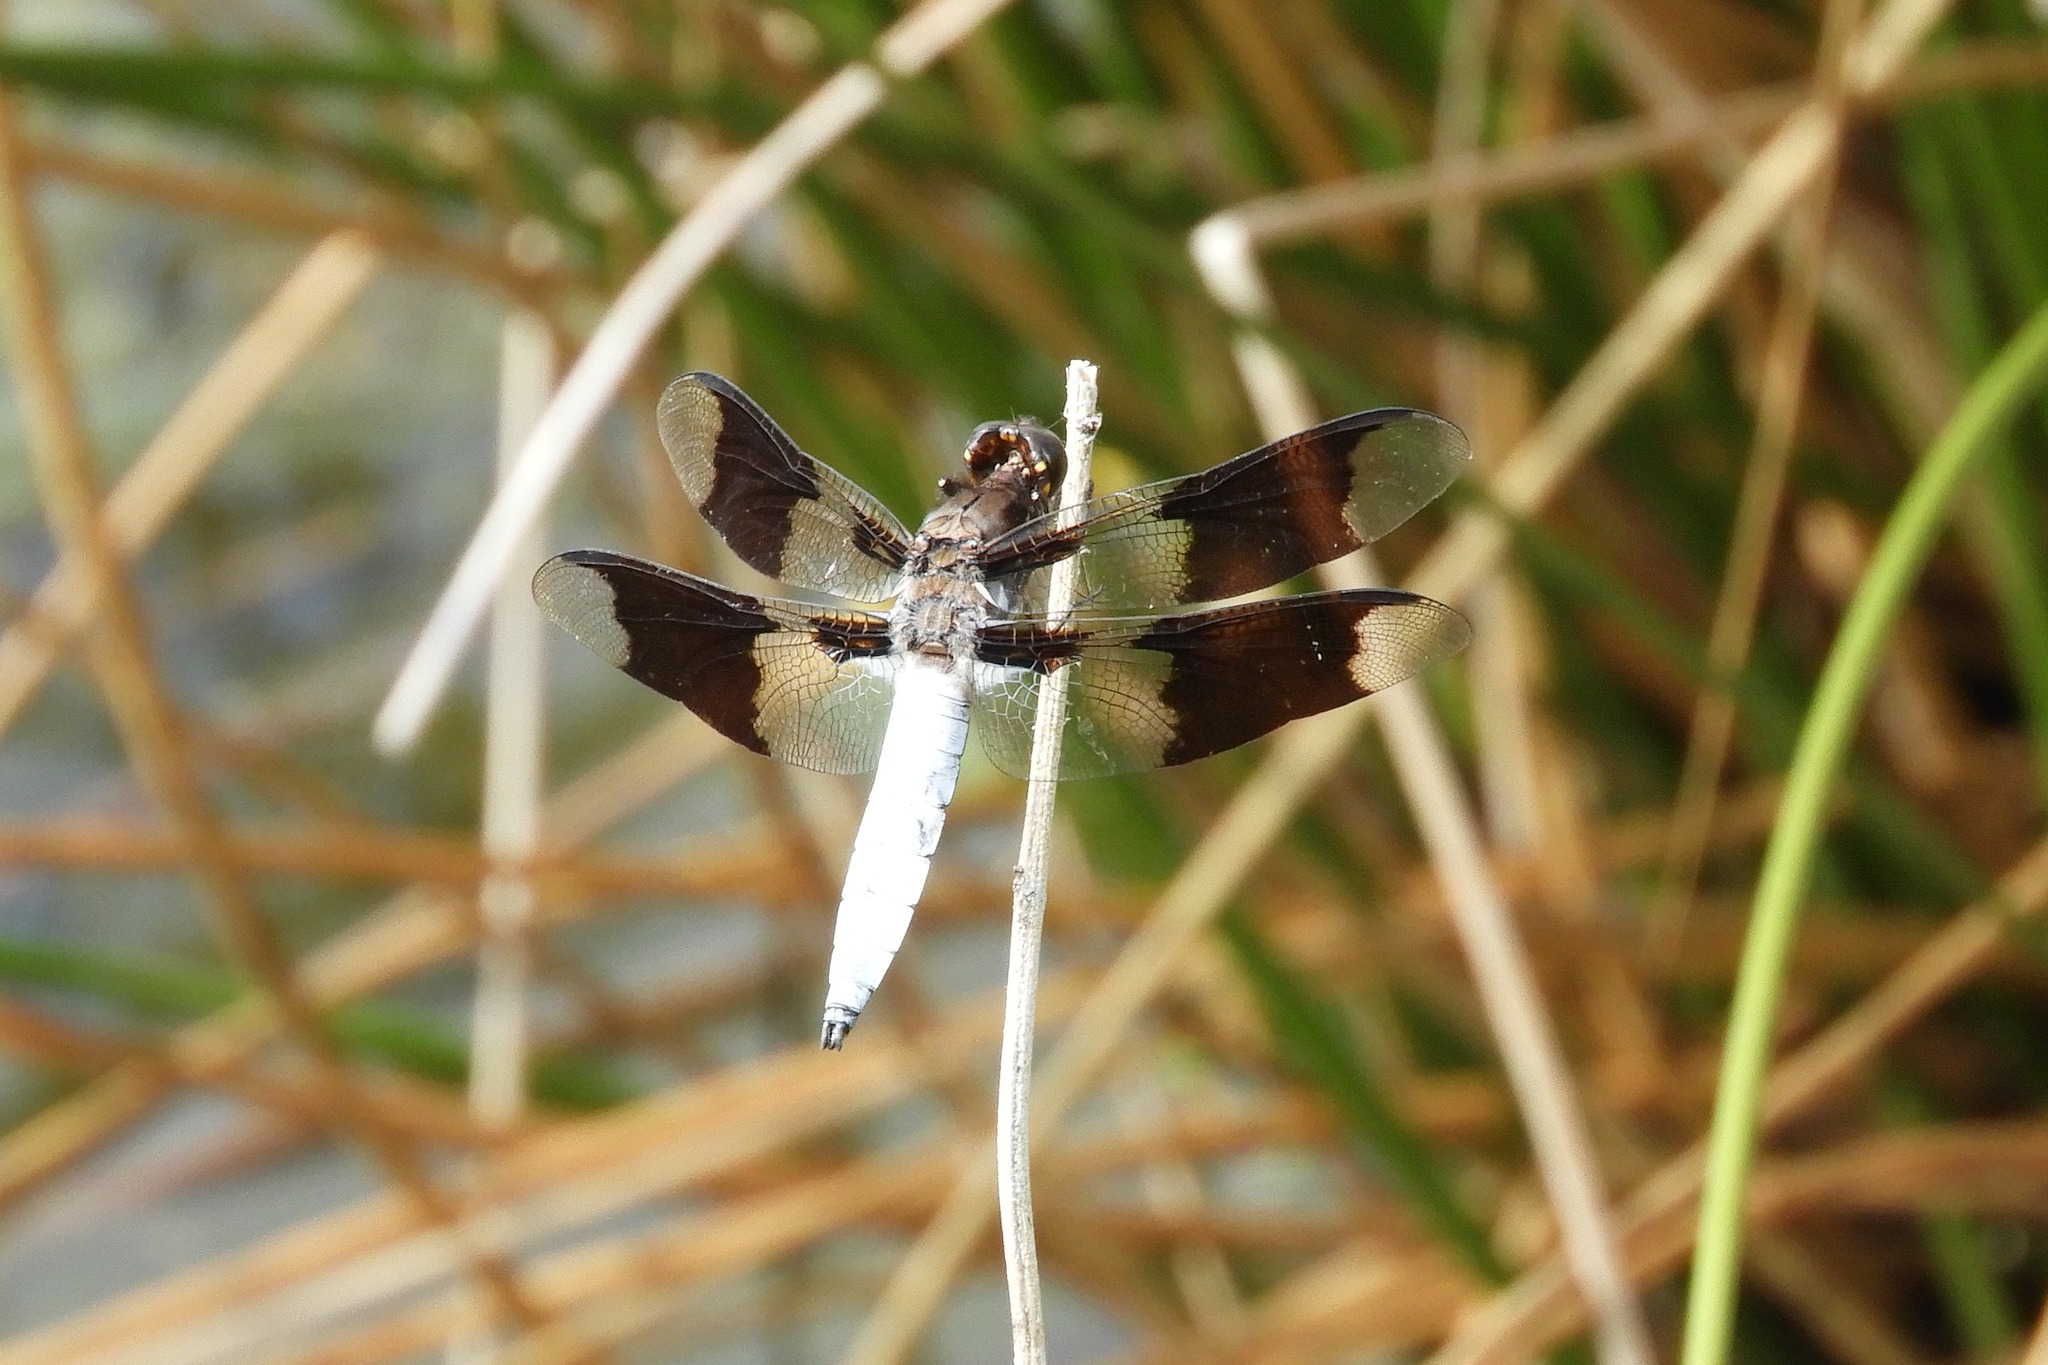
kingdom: Animalia
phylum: Arthropoda
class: Insecta
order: Odonata
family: Libellulidae
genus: Plathemis
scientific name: Plathemis lydia
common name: Common whitetail
